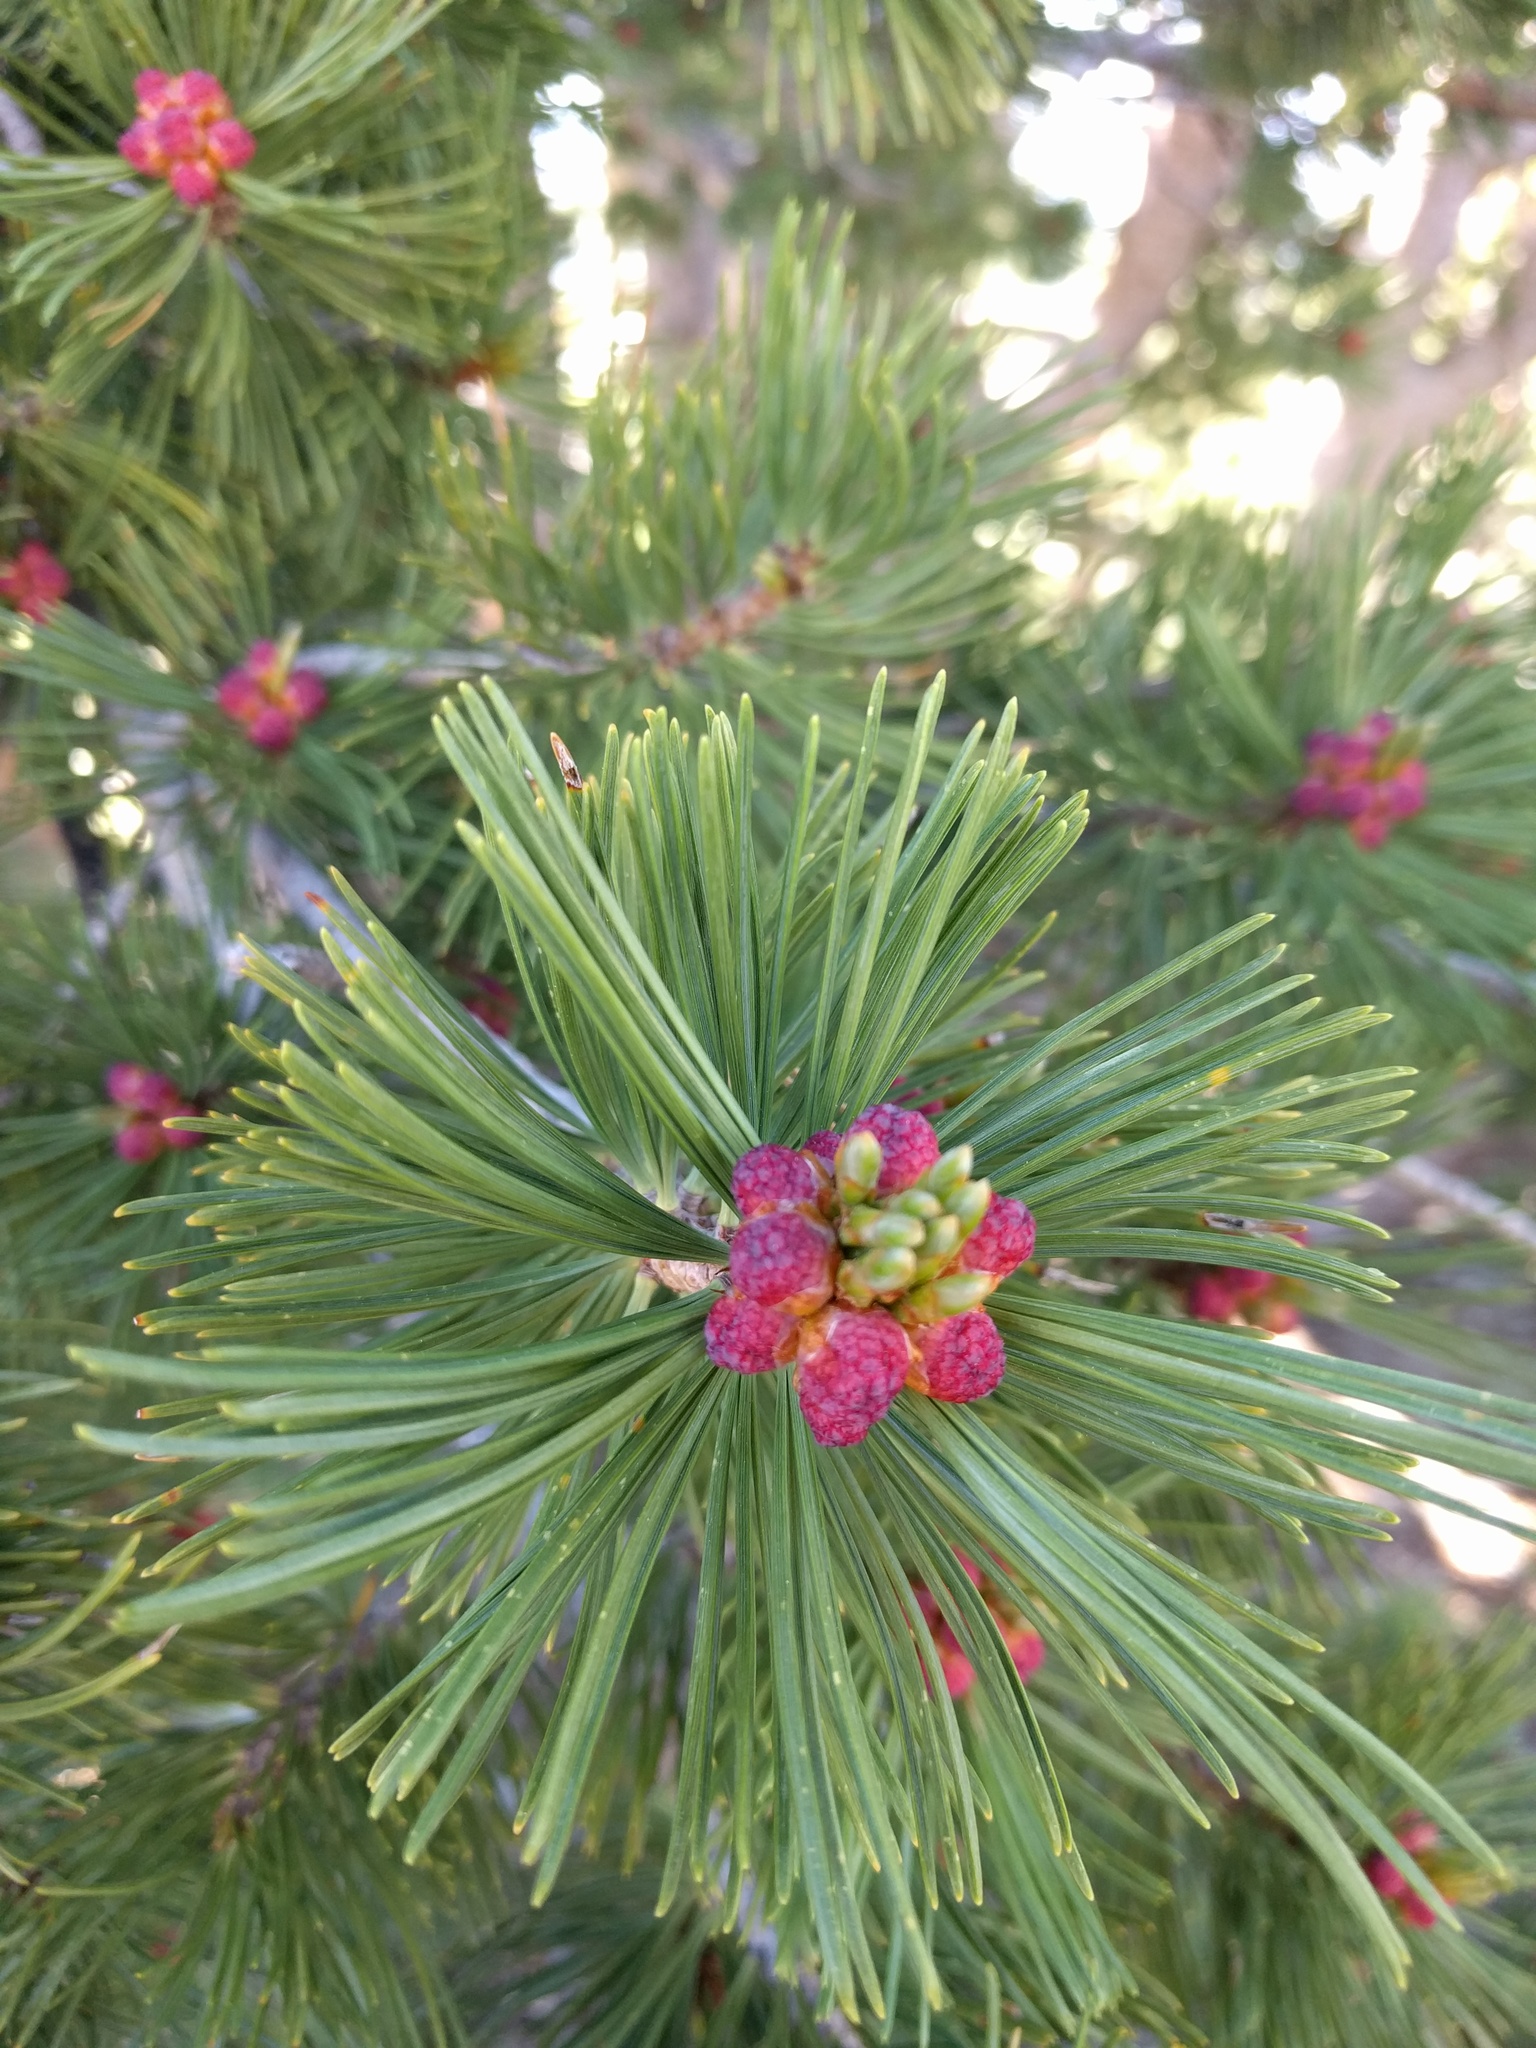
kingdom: Plantae
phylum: Tracheophyta
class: Pinopsida
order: Pinales
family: Pinaceae
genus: Pinus
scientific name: Pinus albicaulis
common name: Whitebark pine
